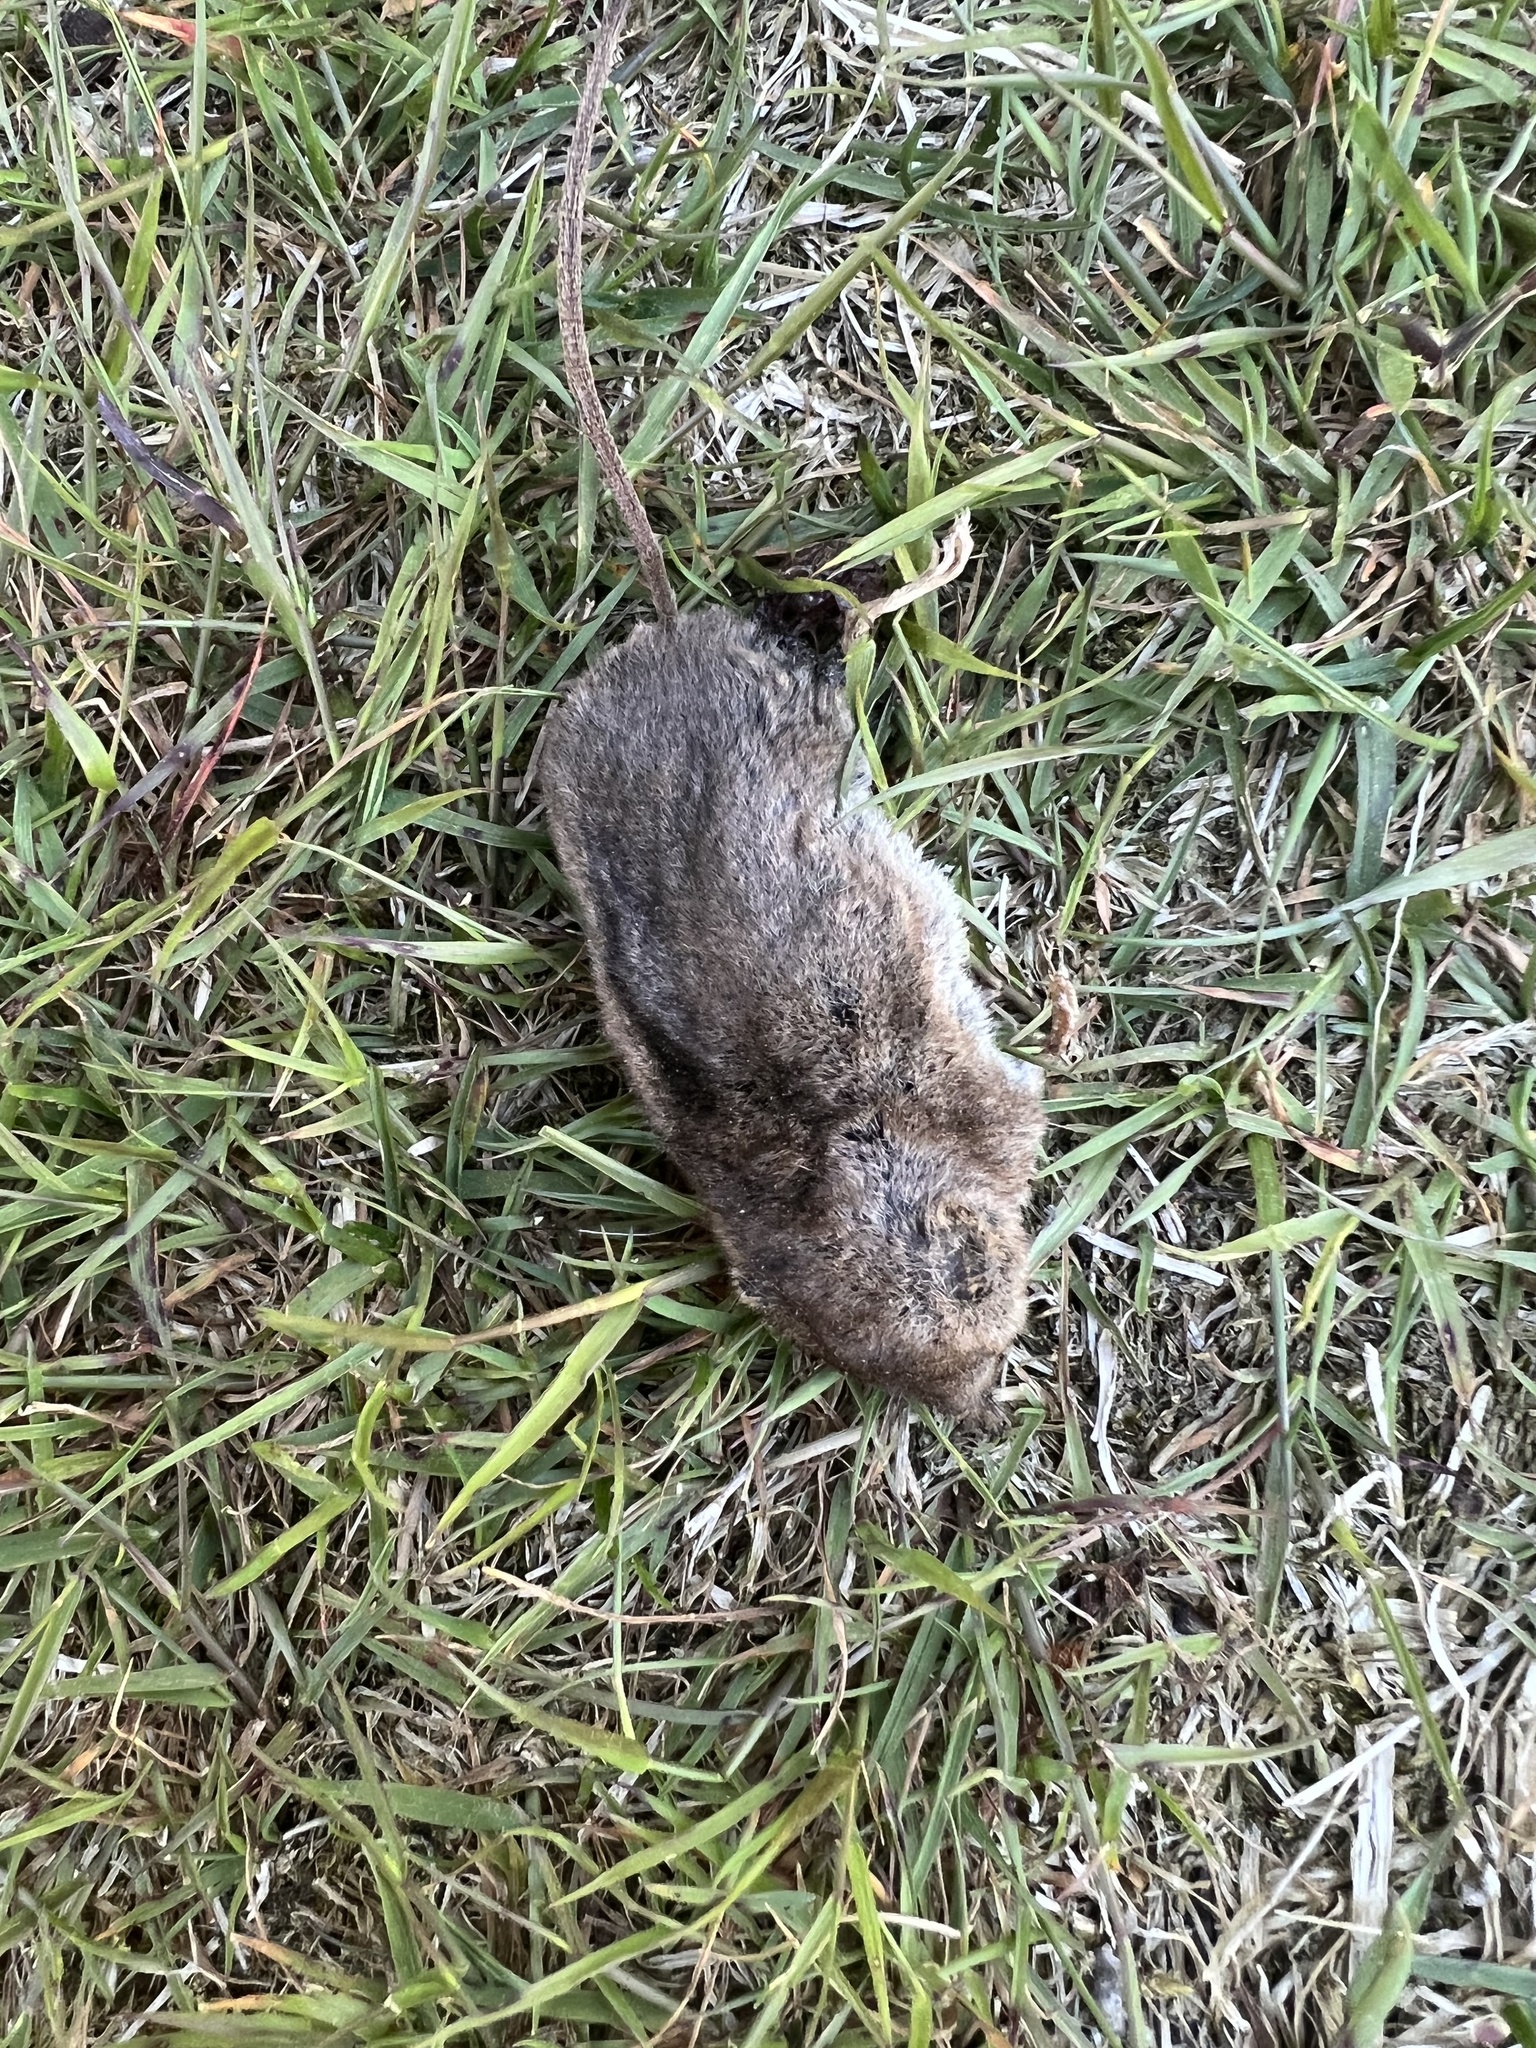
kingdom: Animalia
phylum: Chordata
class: Mammalia
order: Soricomorpha
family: Soricidae
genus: Sorex
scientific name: Sorex cinereus
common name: Cinereus shrew
